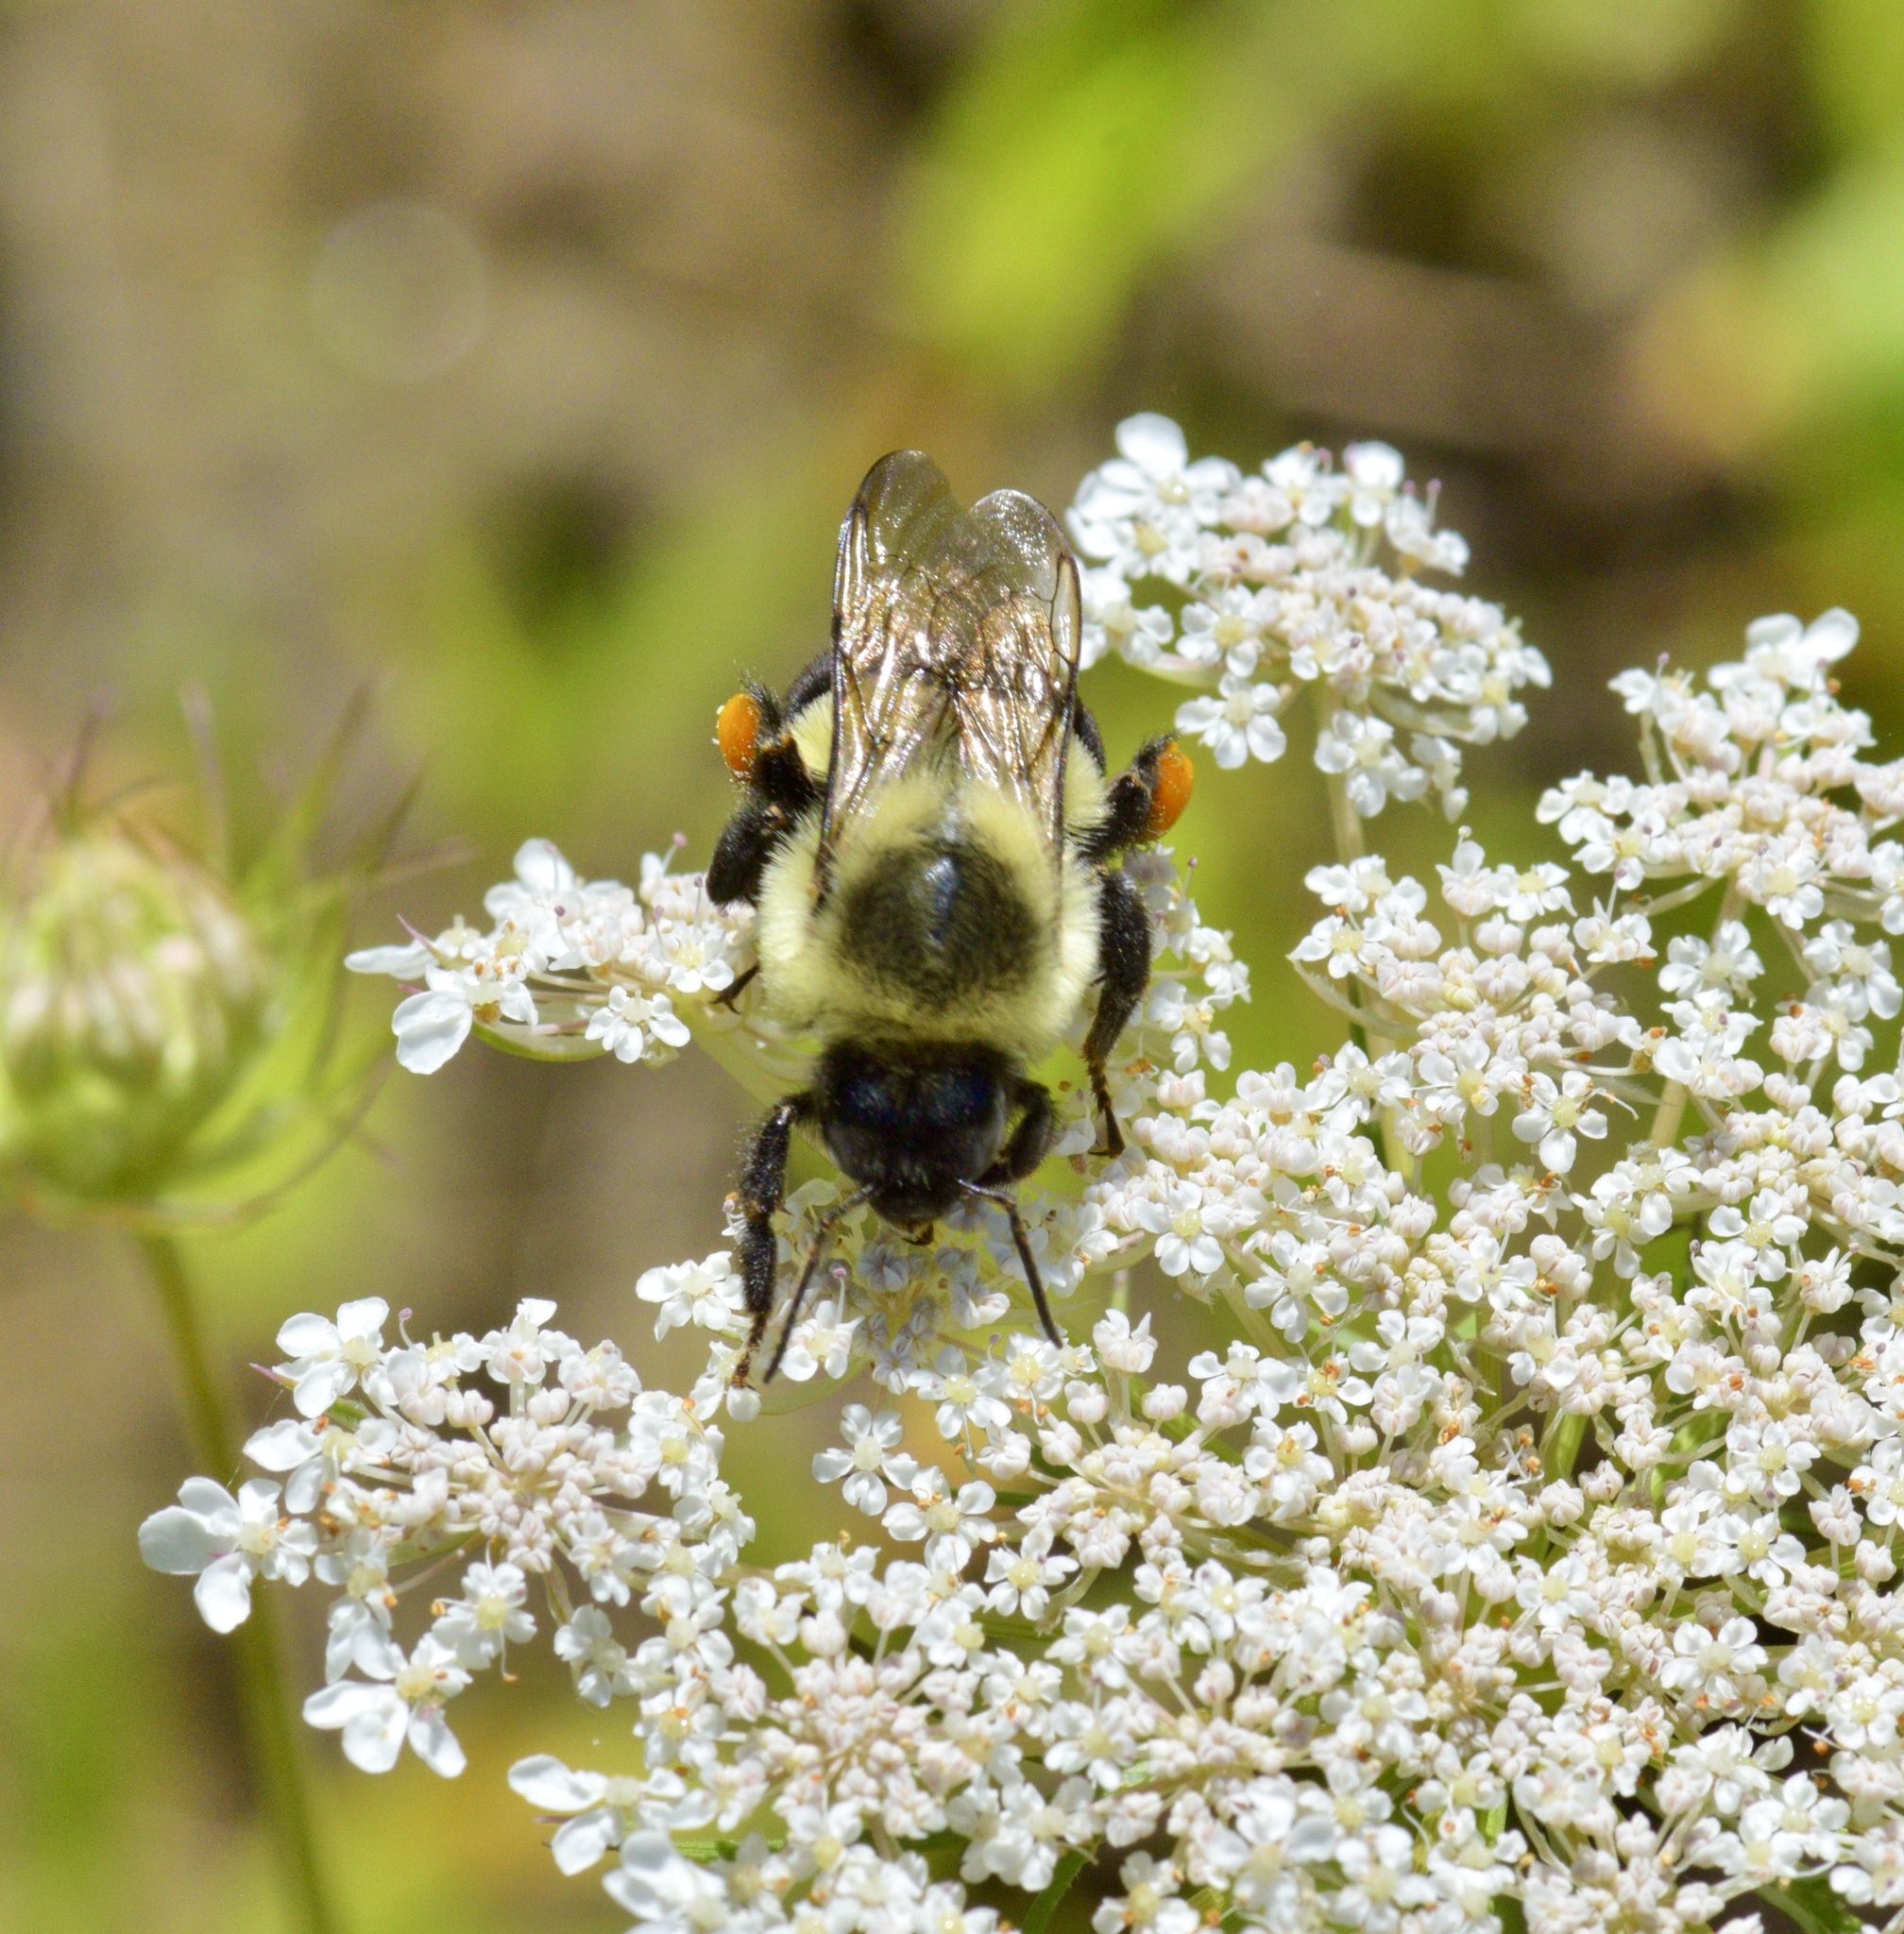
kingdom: Animalia
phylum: Arthropoda
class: Insecta
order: Hymenoptera
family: Apidae
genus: Bombus
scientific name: Bombus impatiens
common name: Common eastern bumble bee
